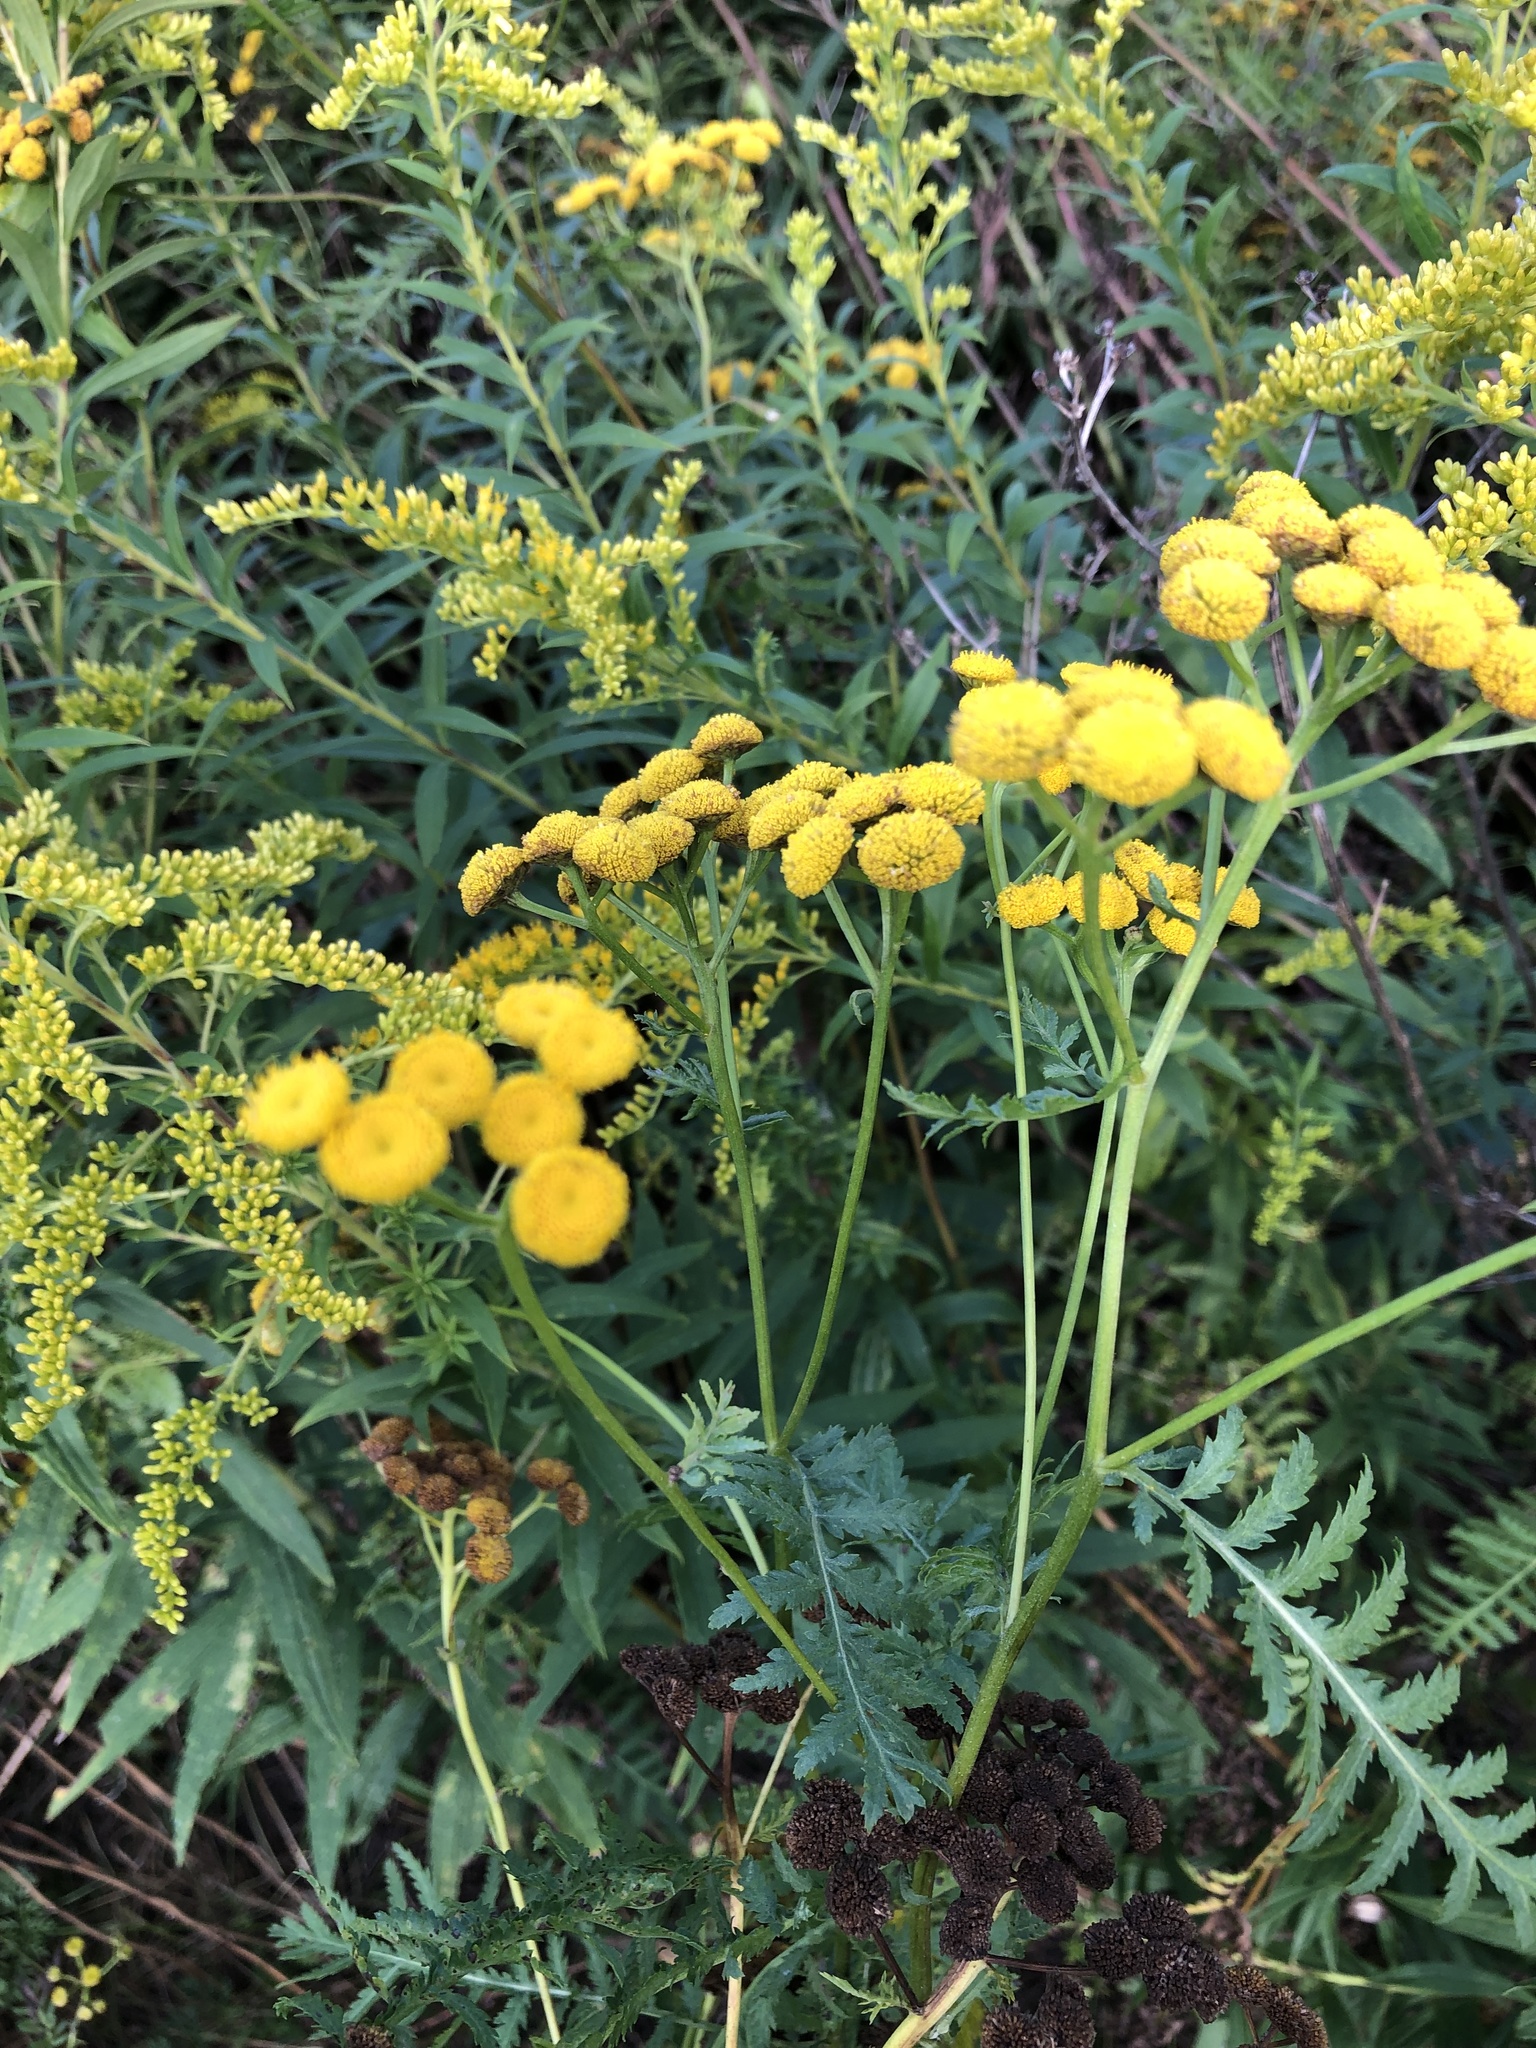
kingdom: Plantae
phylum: Tracheophyta
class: Magnoliopsida
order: Asterales
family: Asteraceae
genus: Tanacetum
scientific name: Tanacetum vulgare
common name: Common tansy
